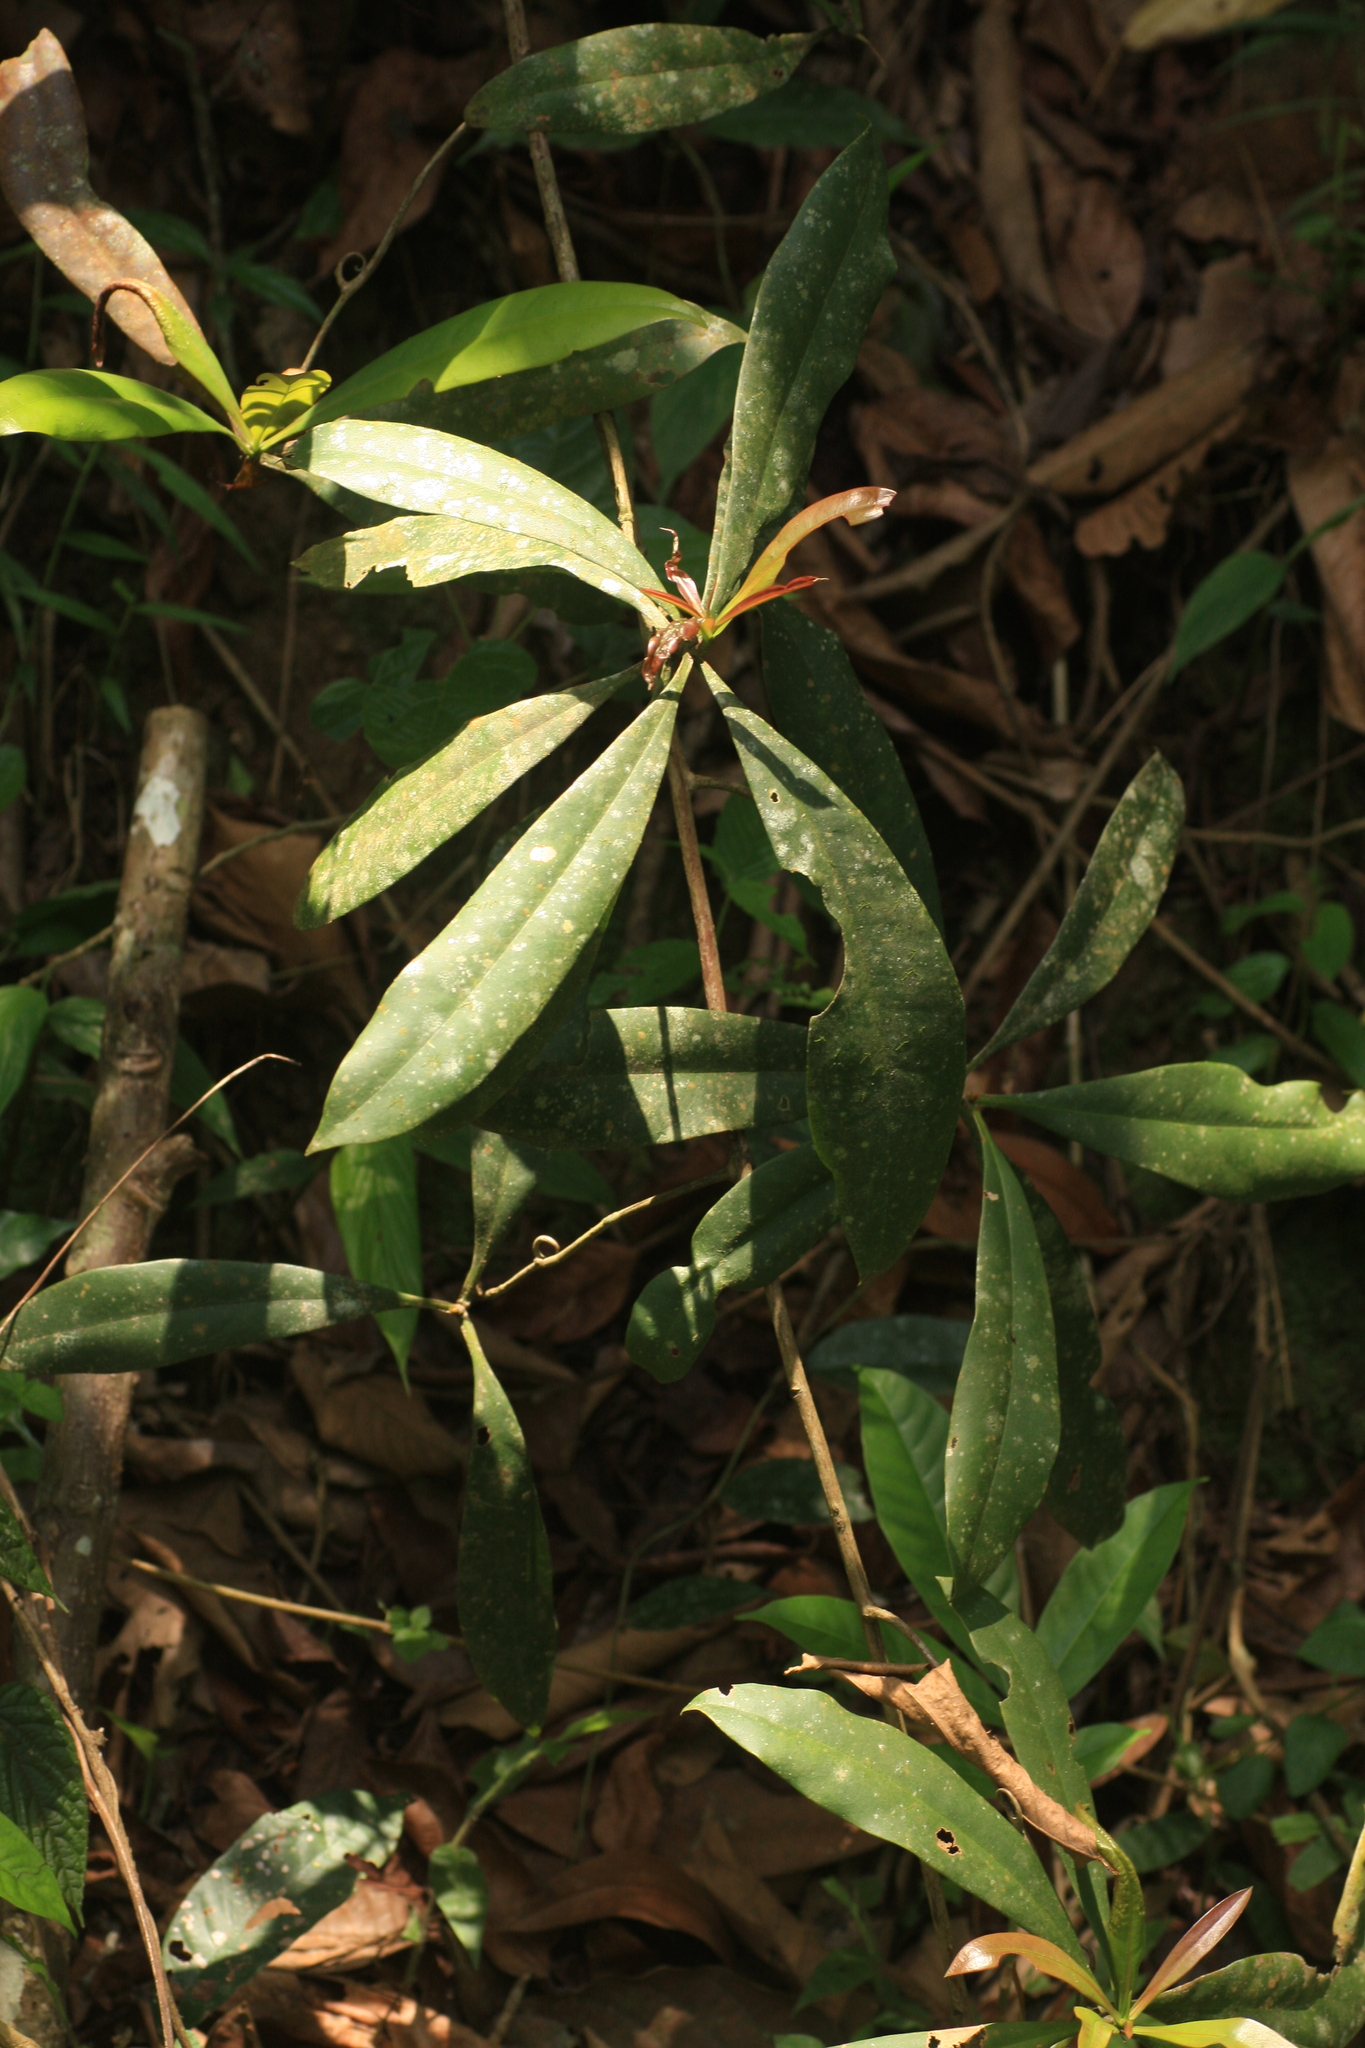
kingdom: Plantae
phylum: Tracheophyta
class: Magnoliopsida
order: Caryophyllales
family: Ancistrocladaceae
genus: Ancistrocladus
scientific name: Ancistrocladus heyneanus
